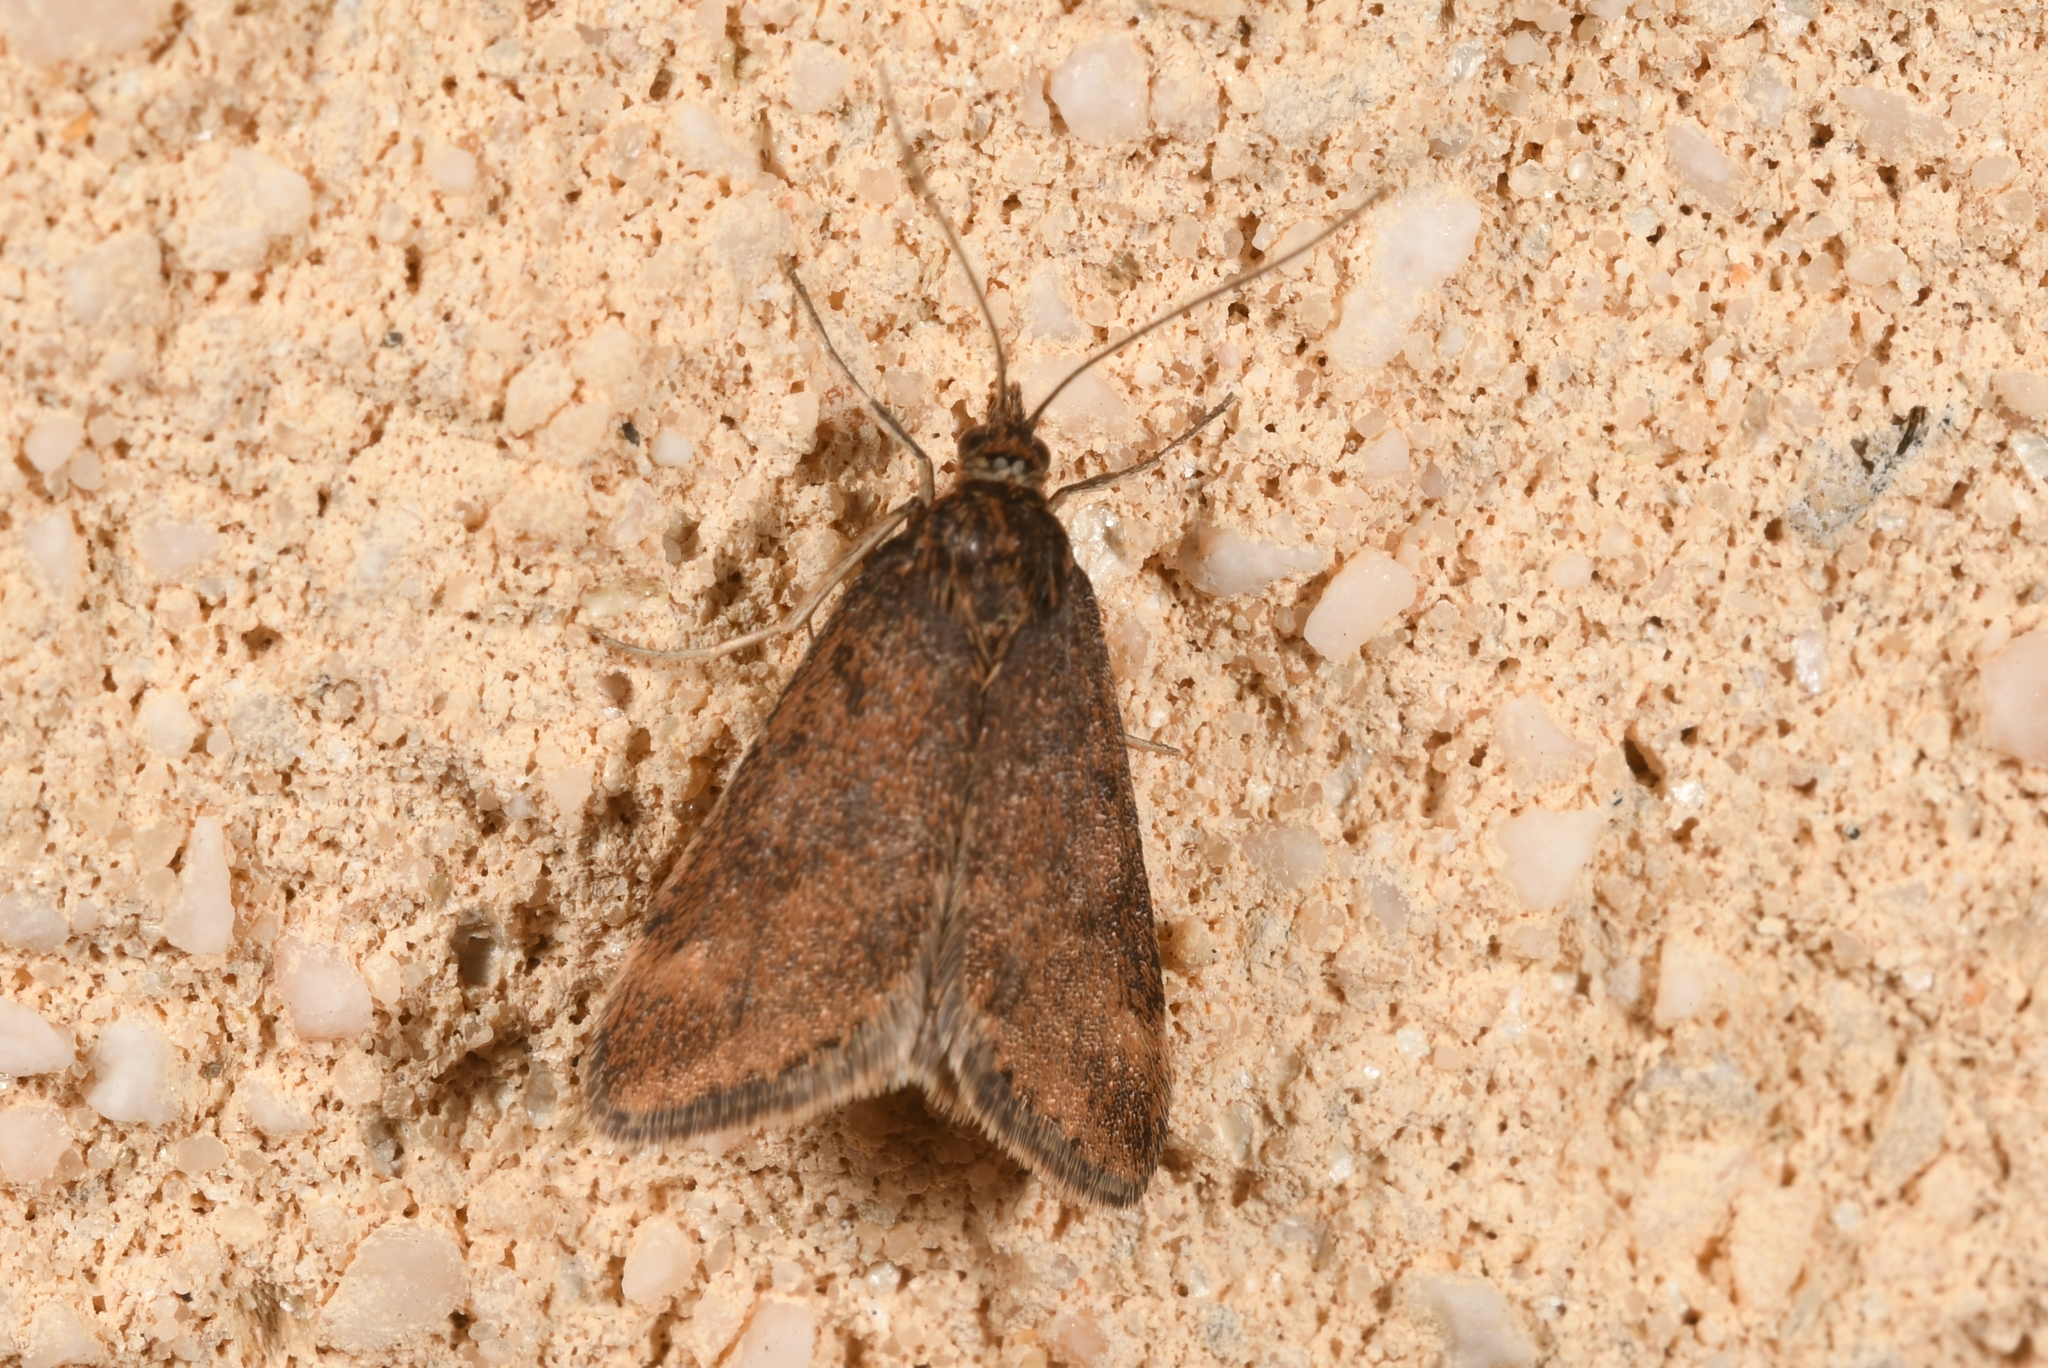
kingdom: Animalia
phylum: Arthropoda
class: Insecta
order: Lepidoptera
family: Crambidae
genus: Pyrausta
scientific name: Pyrausta despicata
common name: Straw-barred pearl
